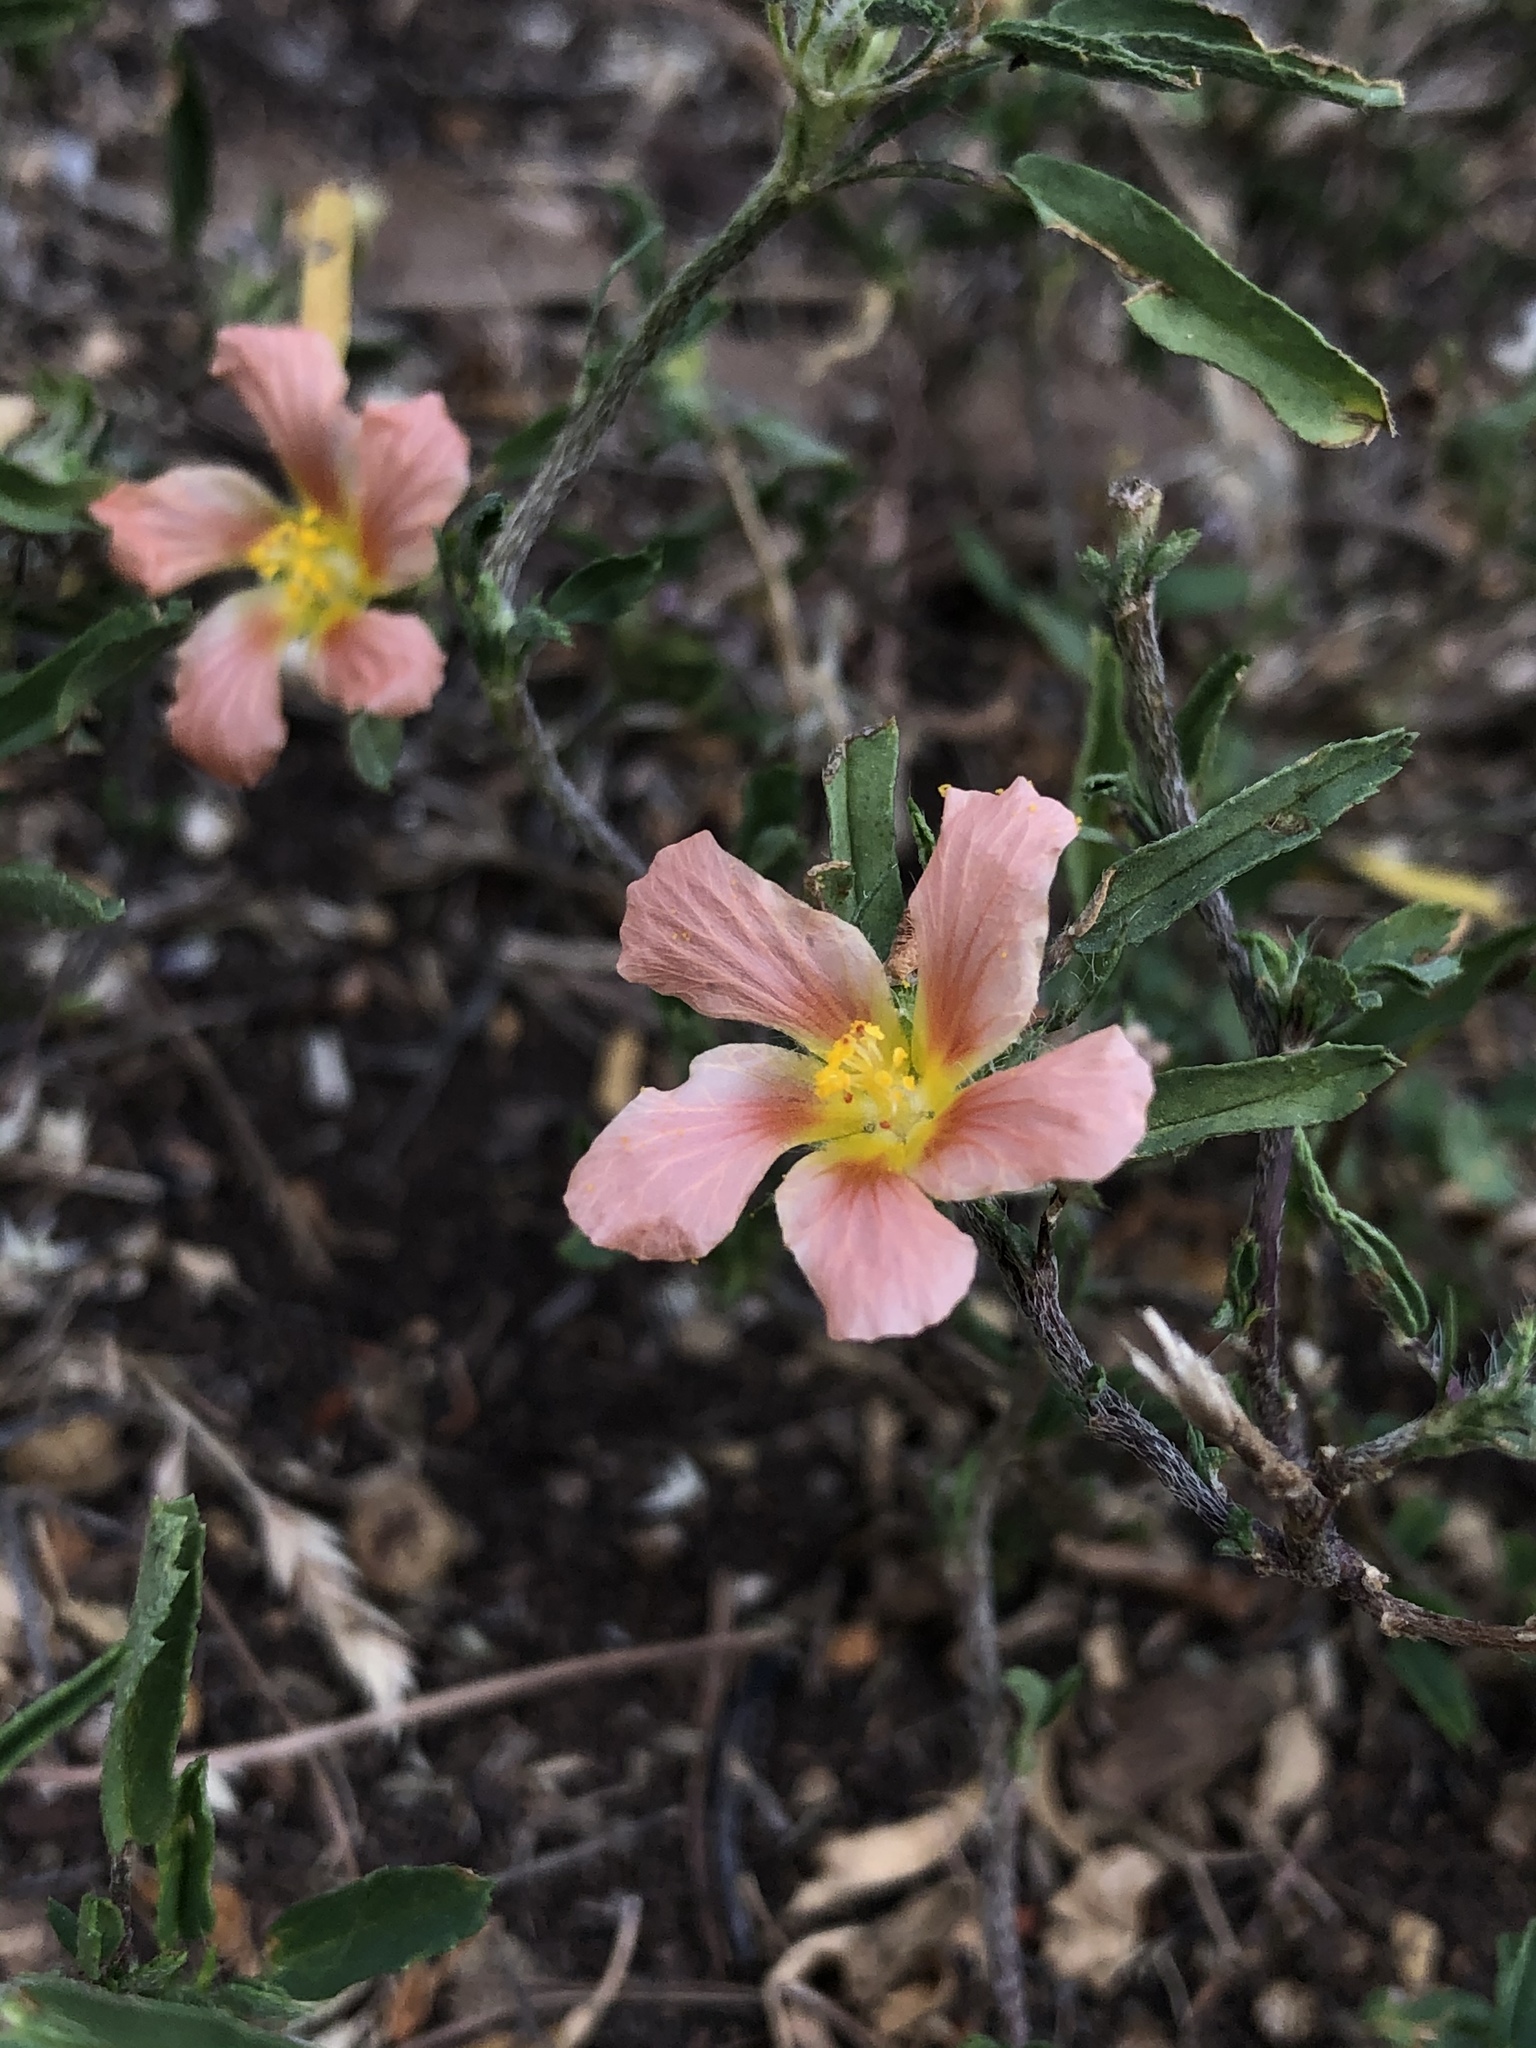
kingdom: Plantae
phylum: Tracheophyta
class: Magnoliopsida
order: Malvales
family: Malvaceae
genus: Sida
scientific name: Sida ciliaris
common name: Bracted fanpetals
